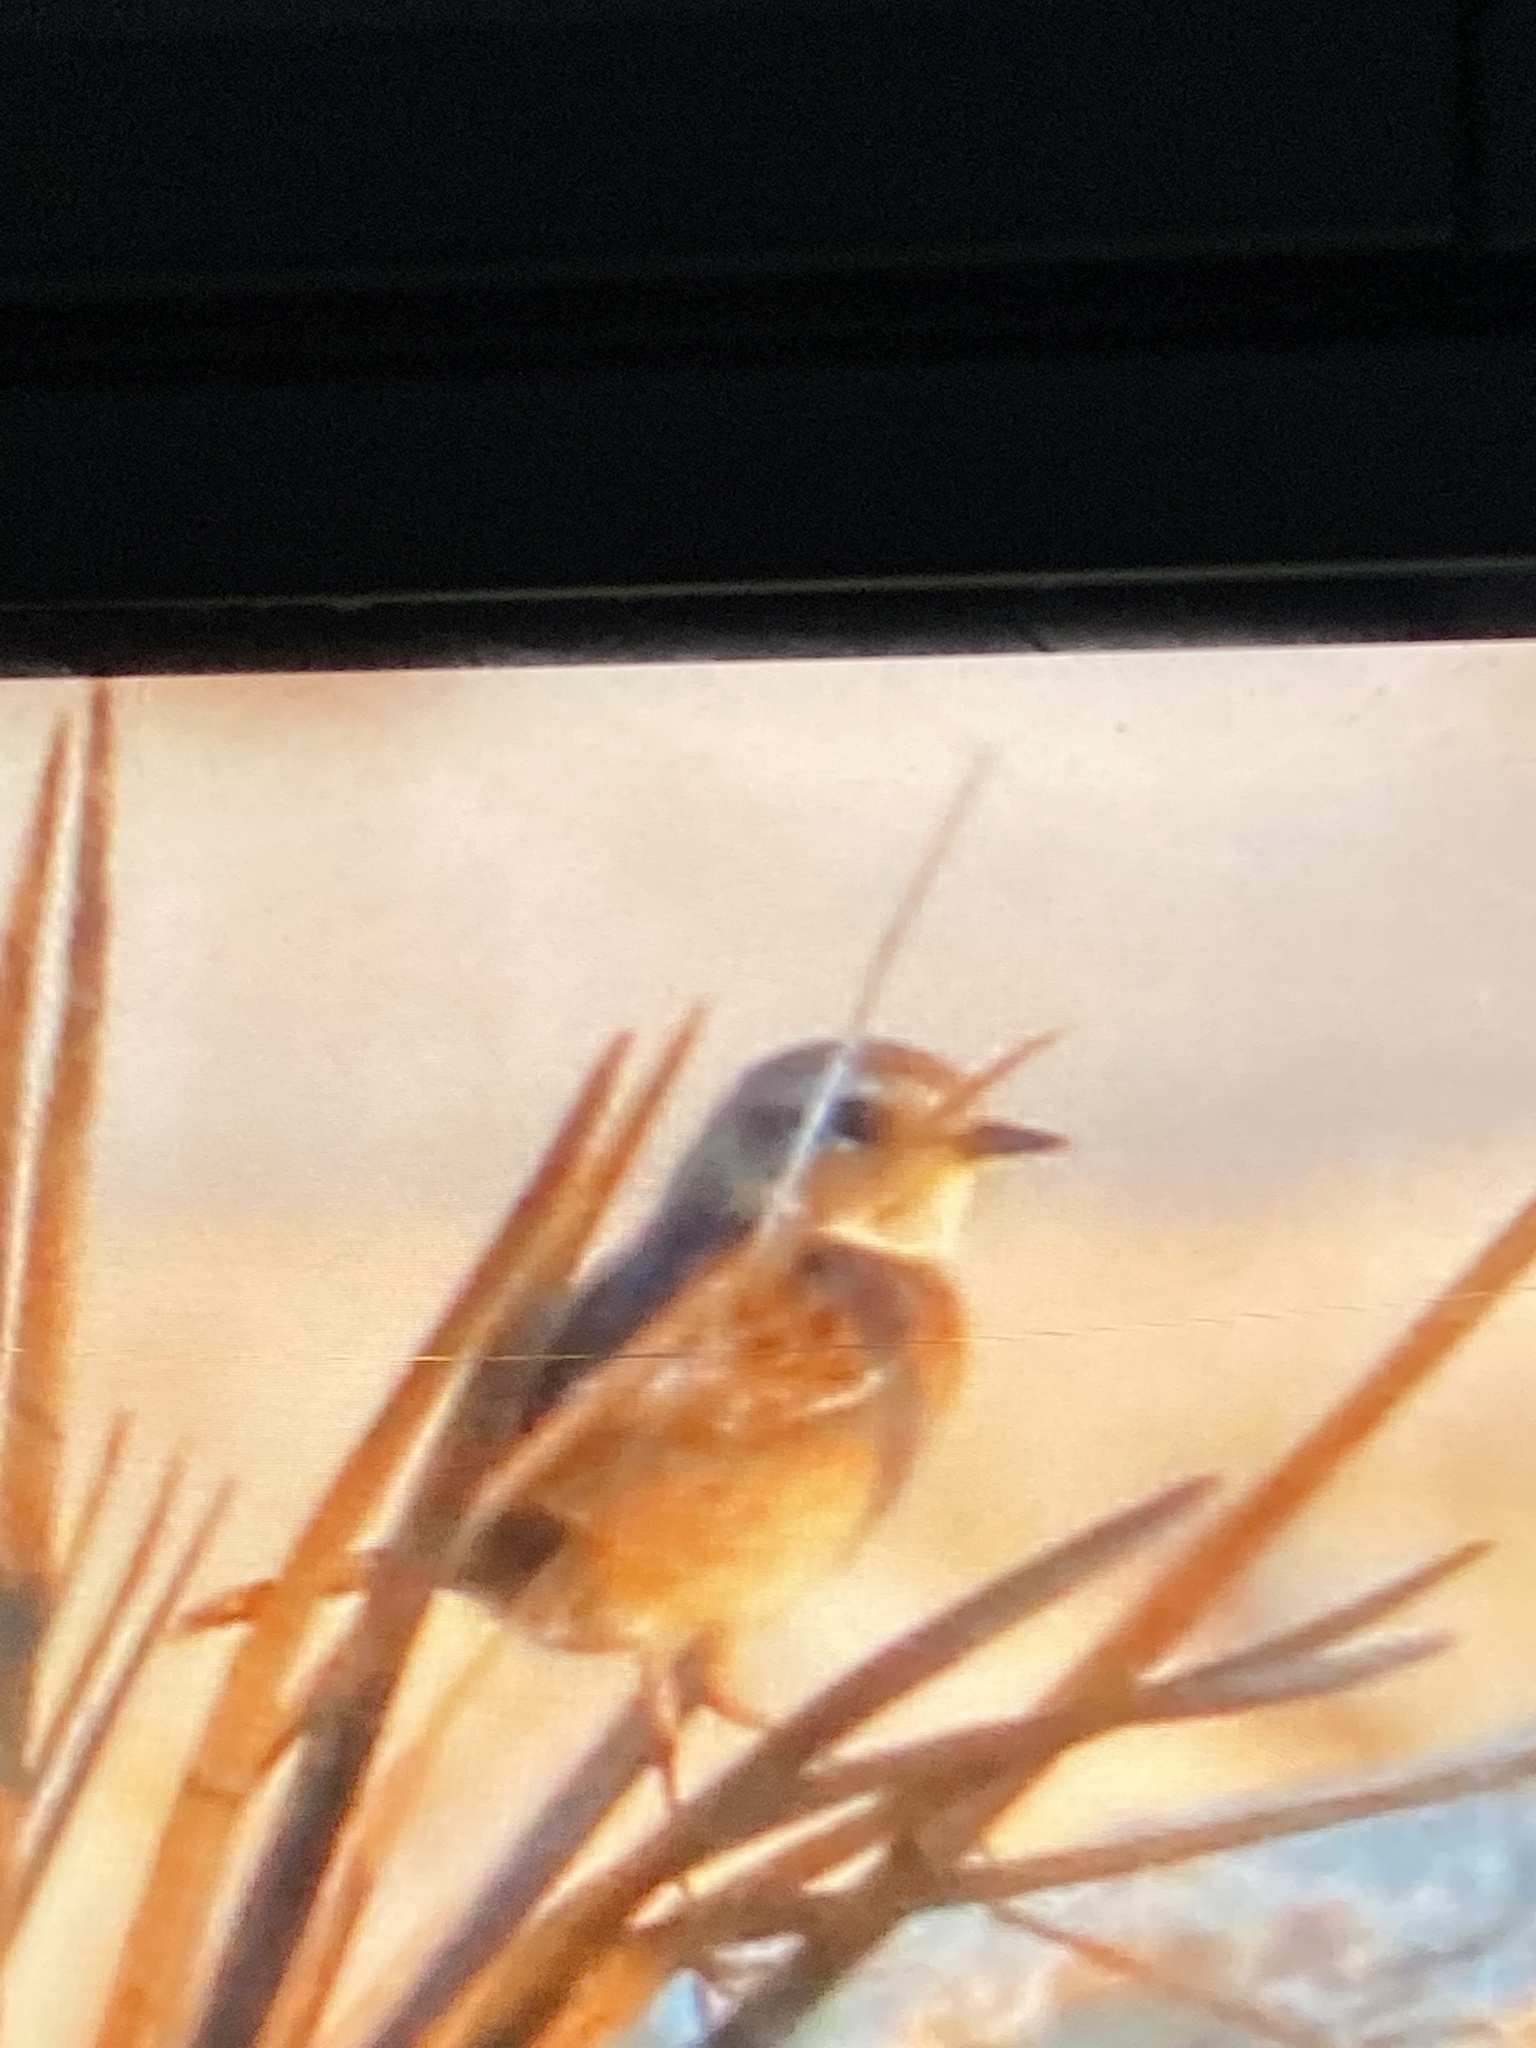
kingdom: Animalia
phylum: Chordata
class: Aves
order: Passeriformes
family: Muscicapidae
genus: Saxicola
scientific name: Saxicola rubicola
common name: European stonechat
